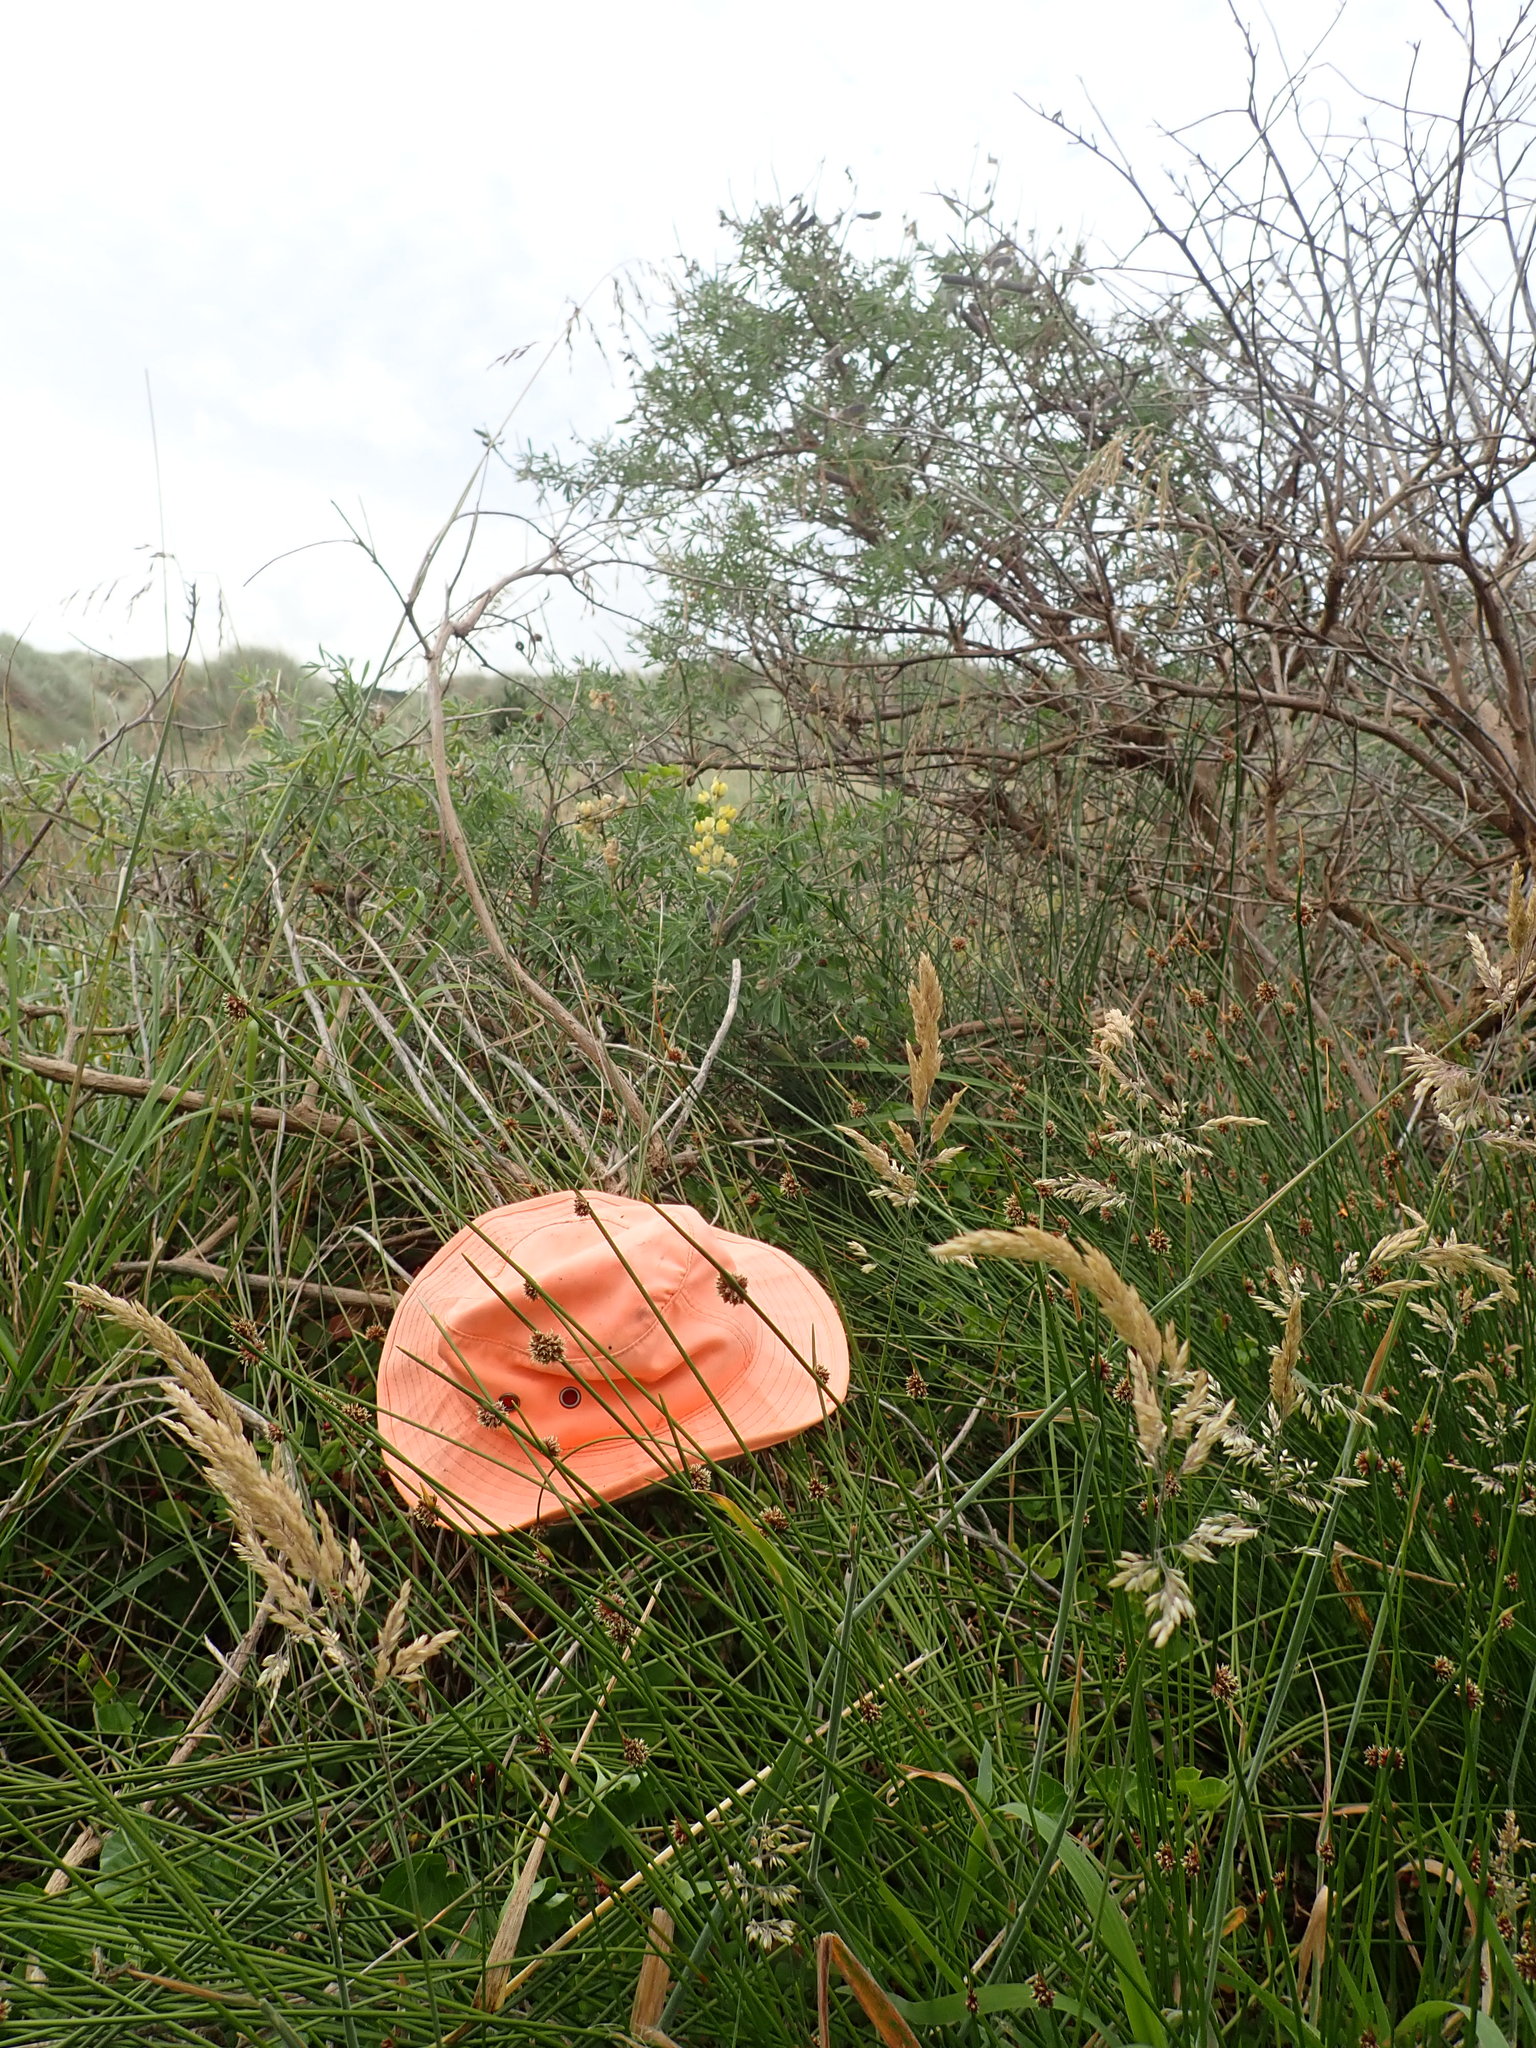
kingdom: Plantae
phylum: Tracheophyta
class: Magnoliopsida
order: Caryophyllales
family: Aizoaceae
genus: Tetragonia
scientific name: Tetragonia implexicoma
